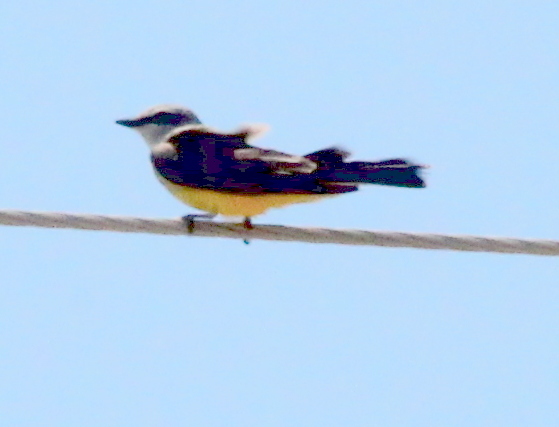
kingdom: Animalia
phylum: Chordata
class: Aves
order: Passeriformes
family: Tyrannidae
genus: Tyrannus
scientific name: Tyrannus verticalis
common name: Western kingbird
